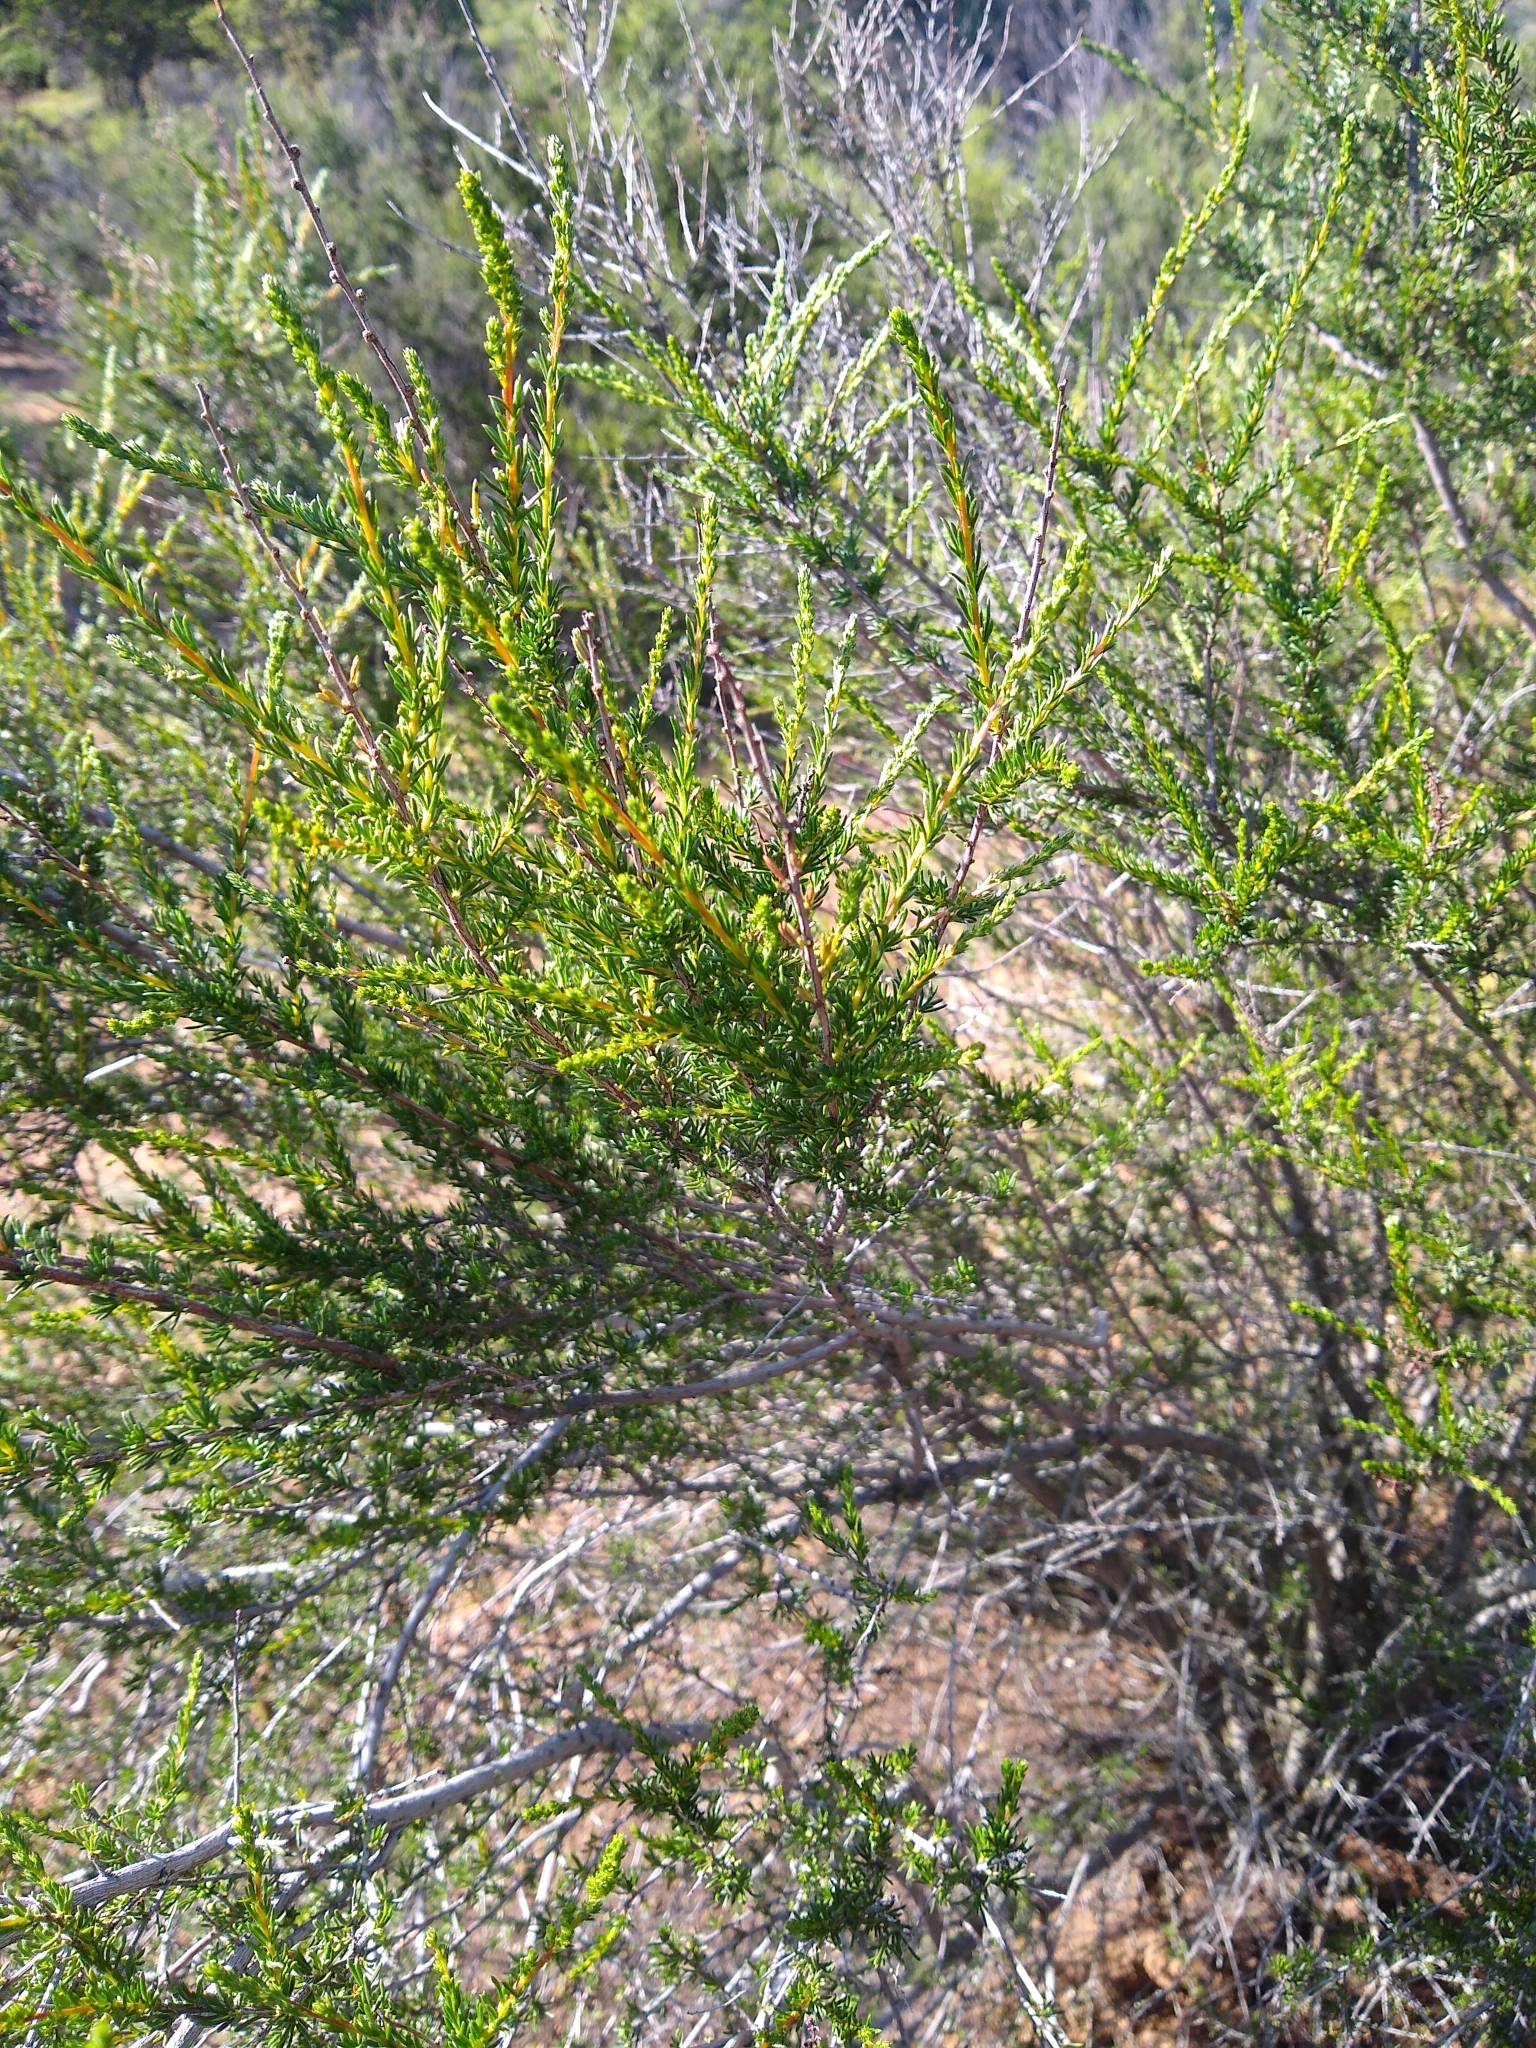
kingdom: Plantae
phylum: Tracheophyta
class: Magnoliopsida
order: Rosales
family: Rosaceae
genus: Adenostoma
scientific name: Adenostoma fasciculatum
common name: Chamise
